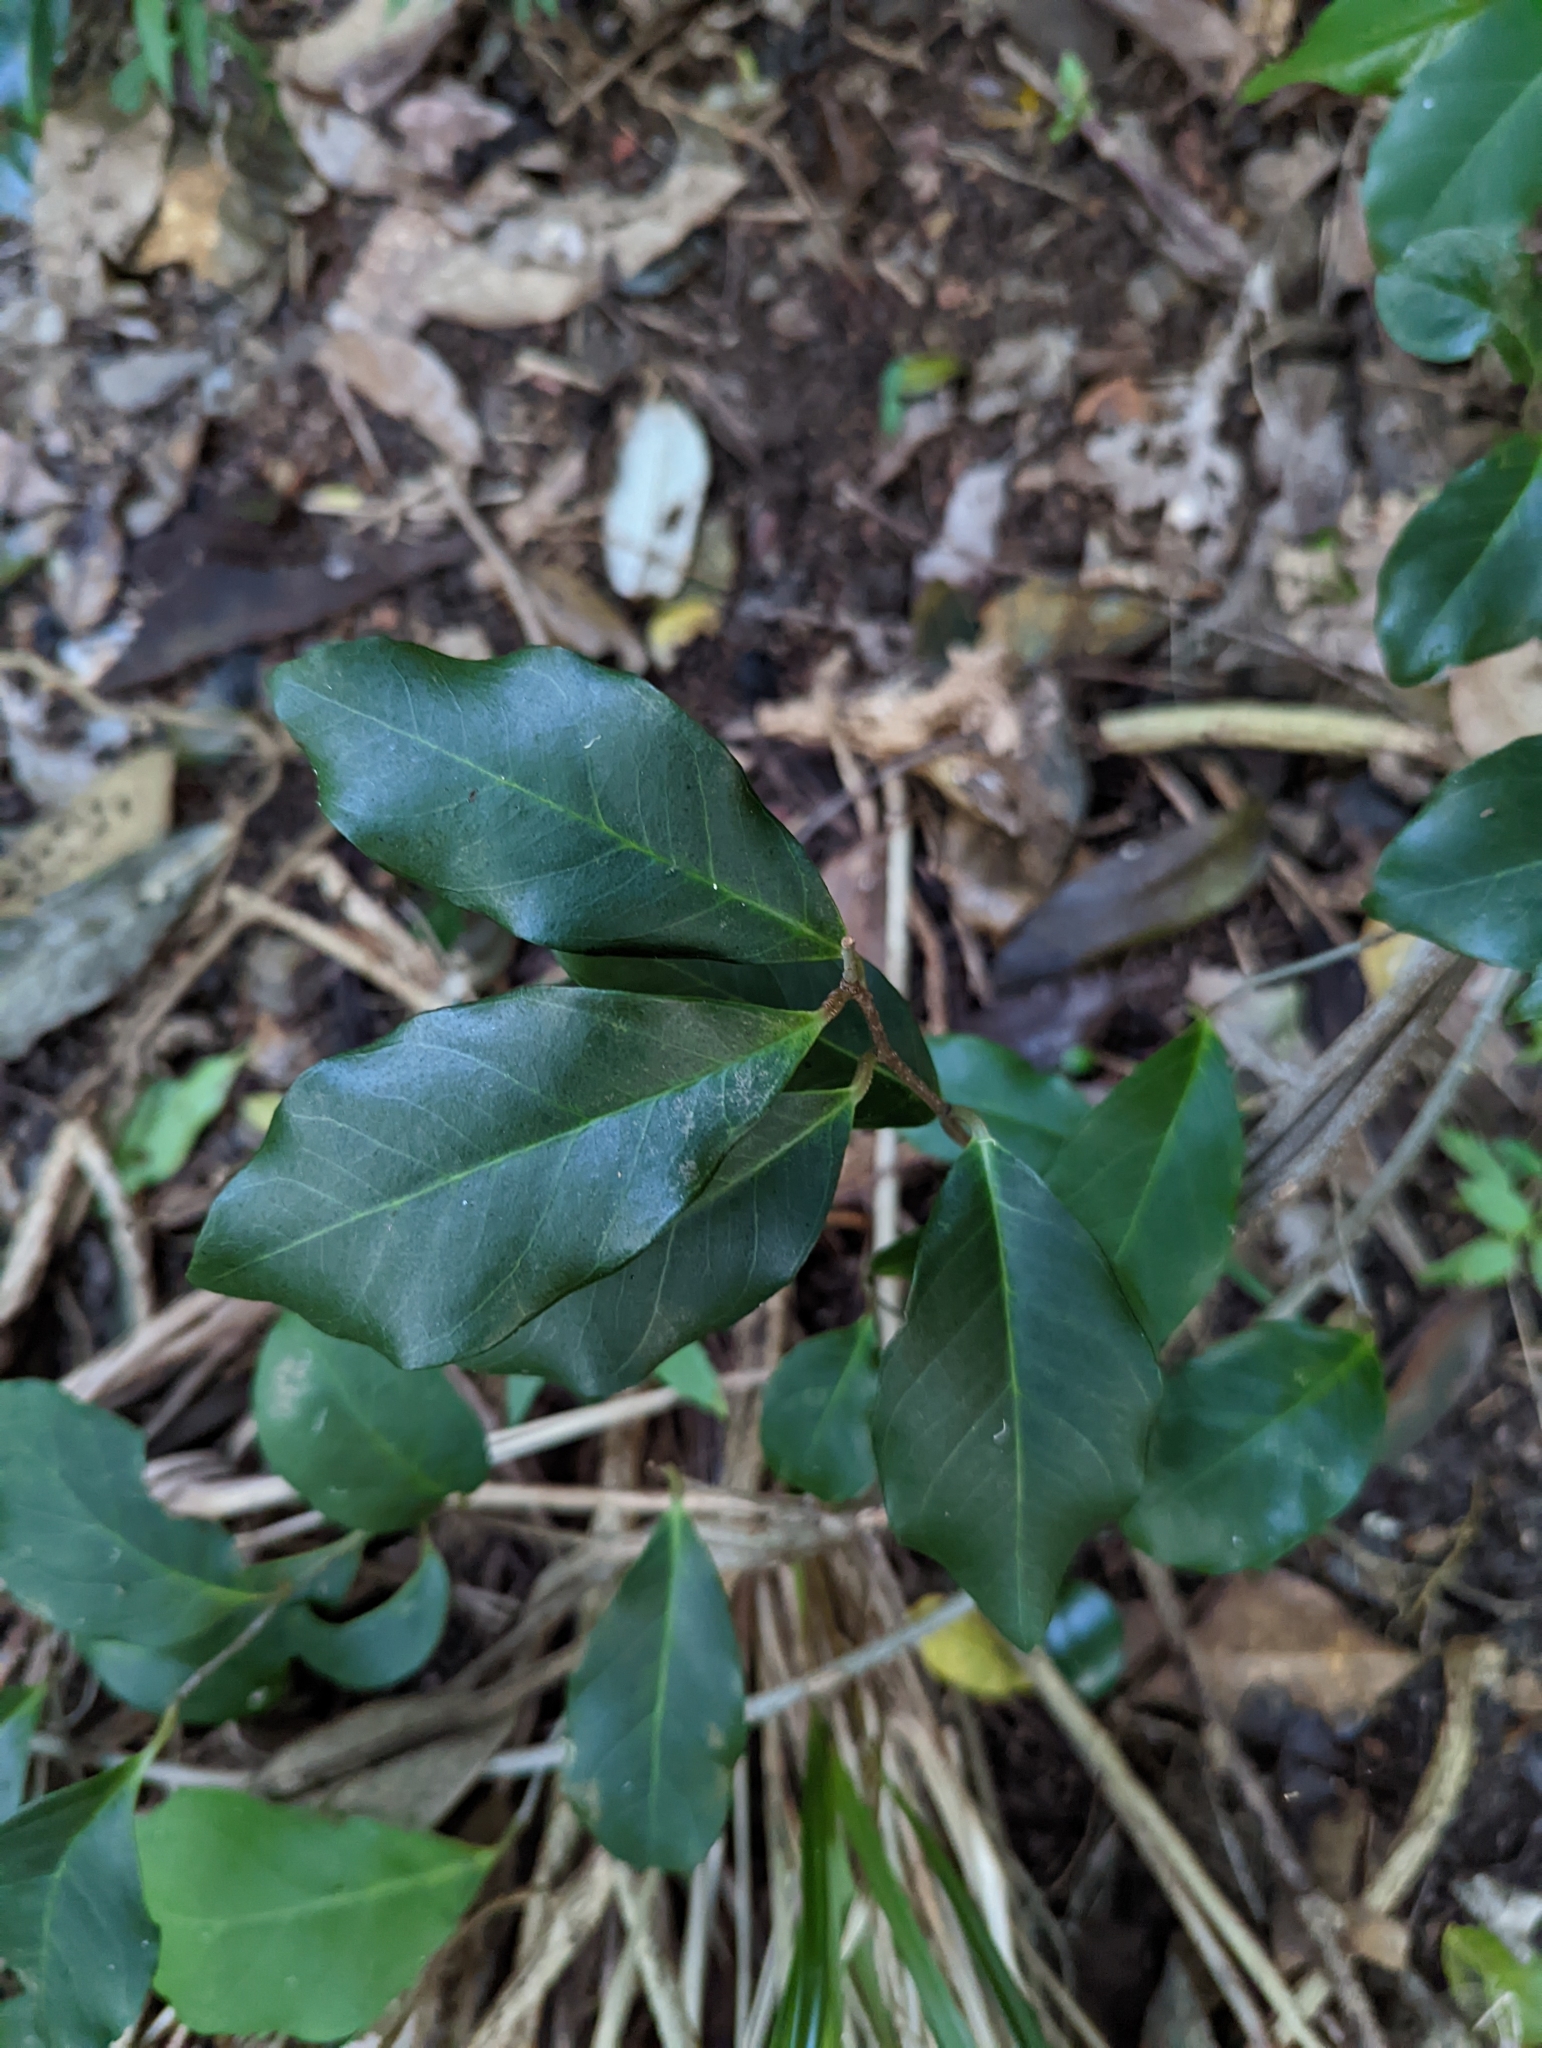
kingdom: Plantae
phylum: Tracheophyta
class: Magnoliopsida
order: Ericales
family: Primulaceae
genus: Embelia
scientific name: Embelia australiana
